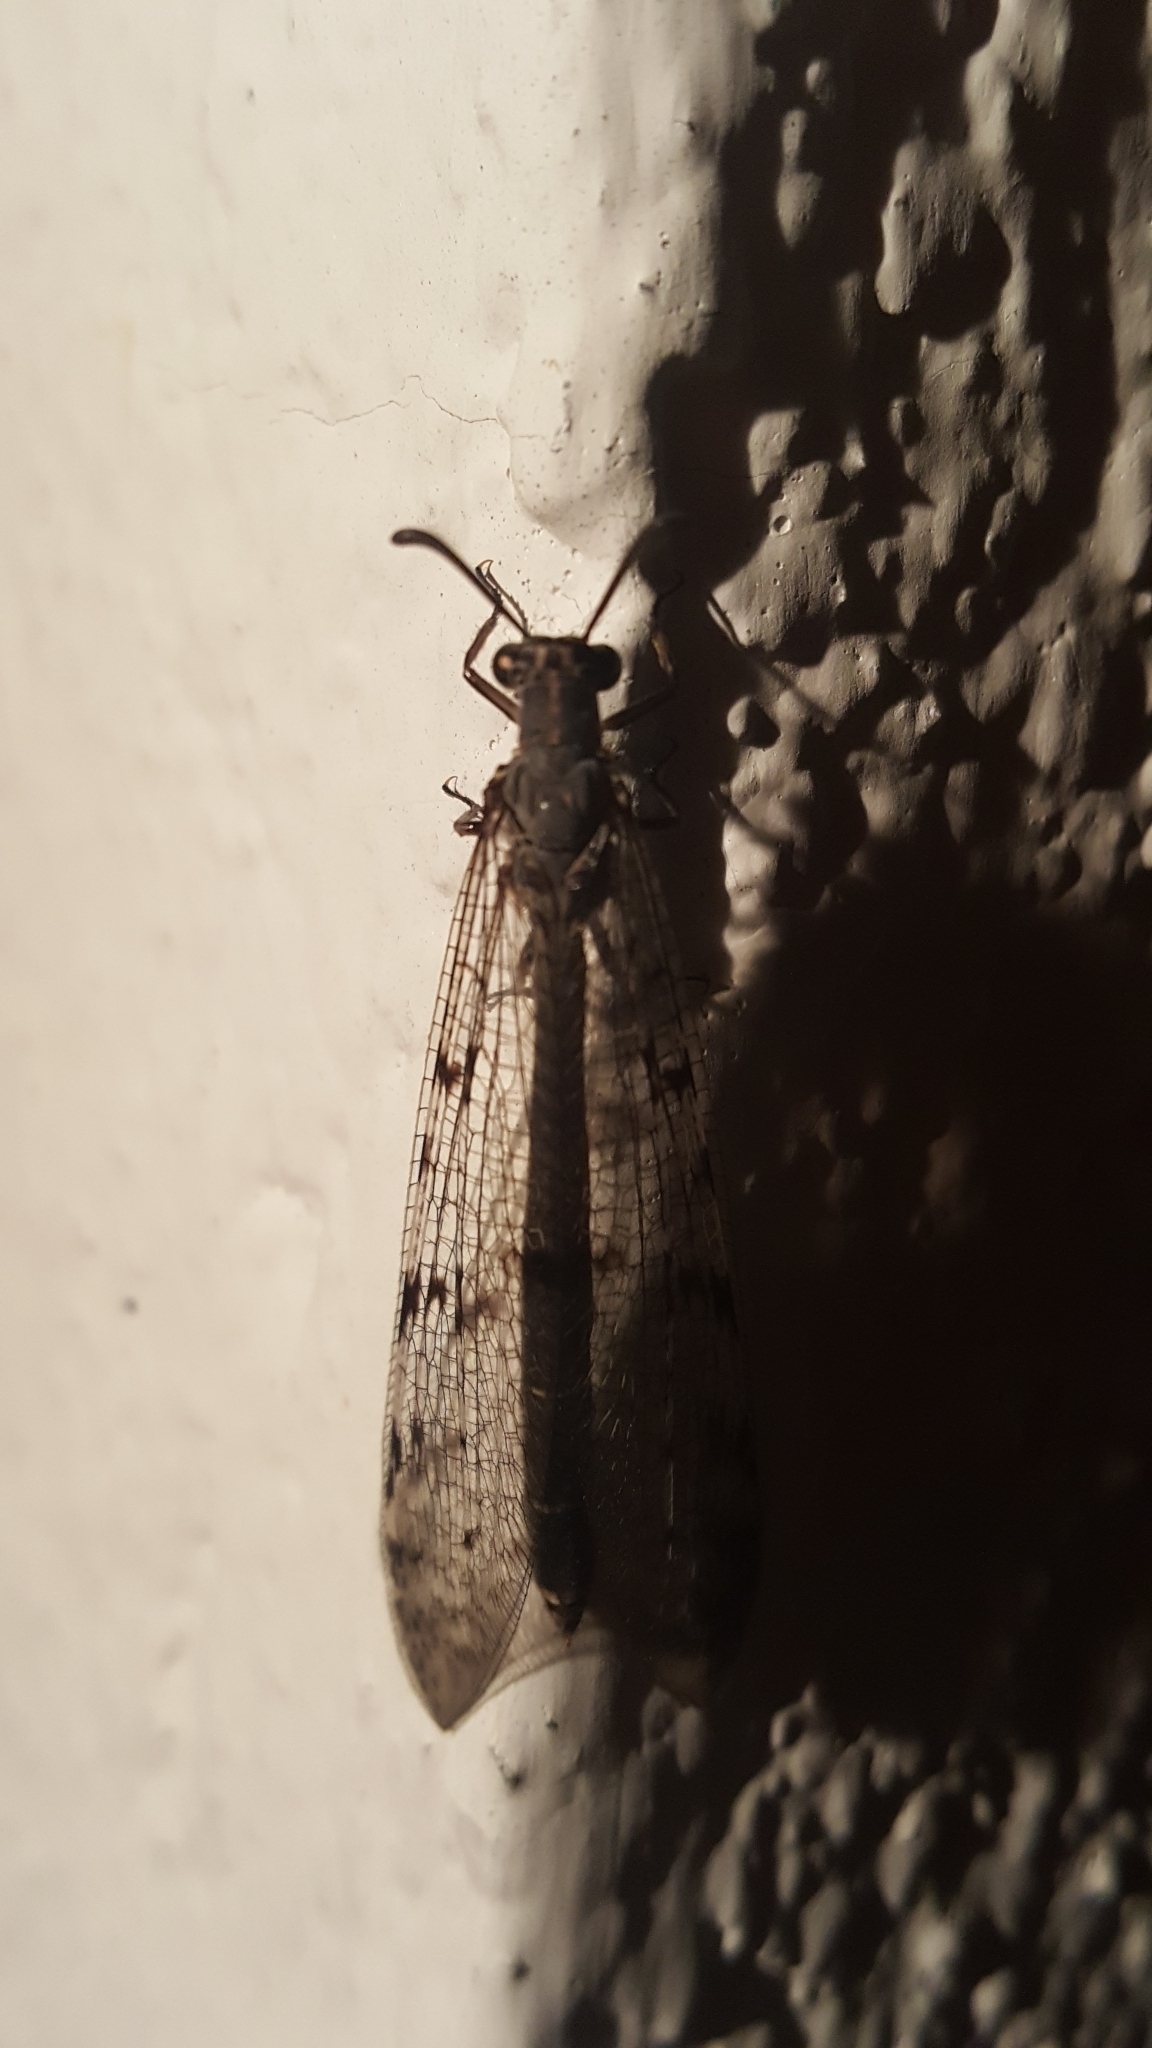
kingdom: Animalia
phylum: Arthropoda
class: Insecta
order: Neuroptera
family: Myrmeleontidae
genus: Euroleon
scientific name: Euroleon nostras
